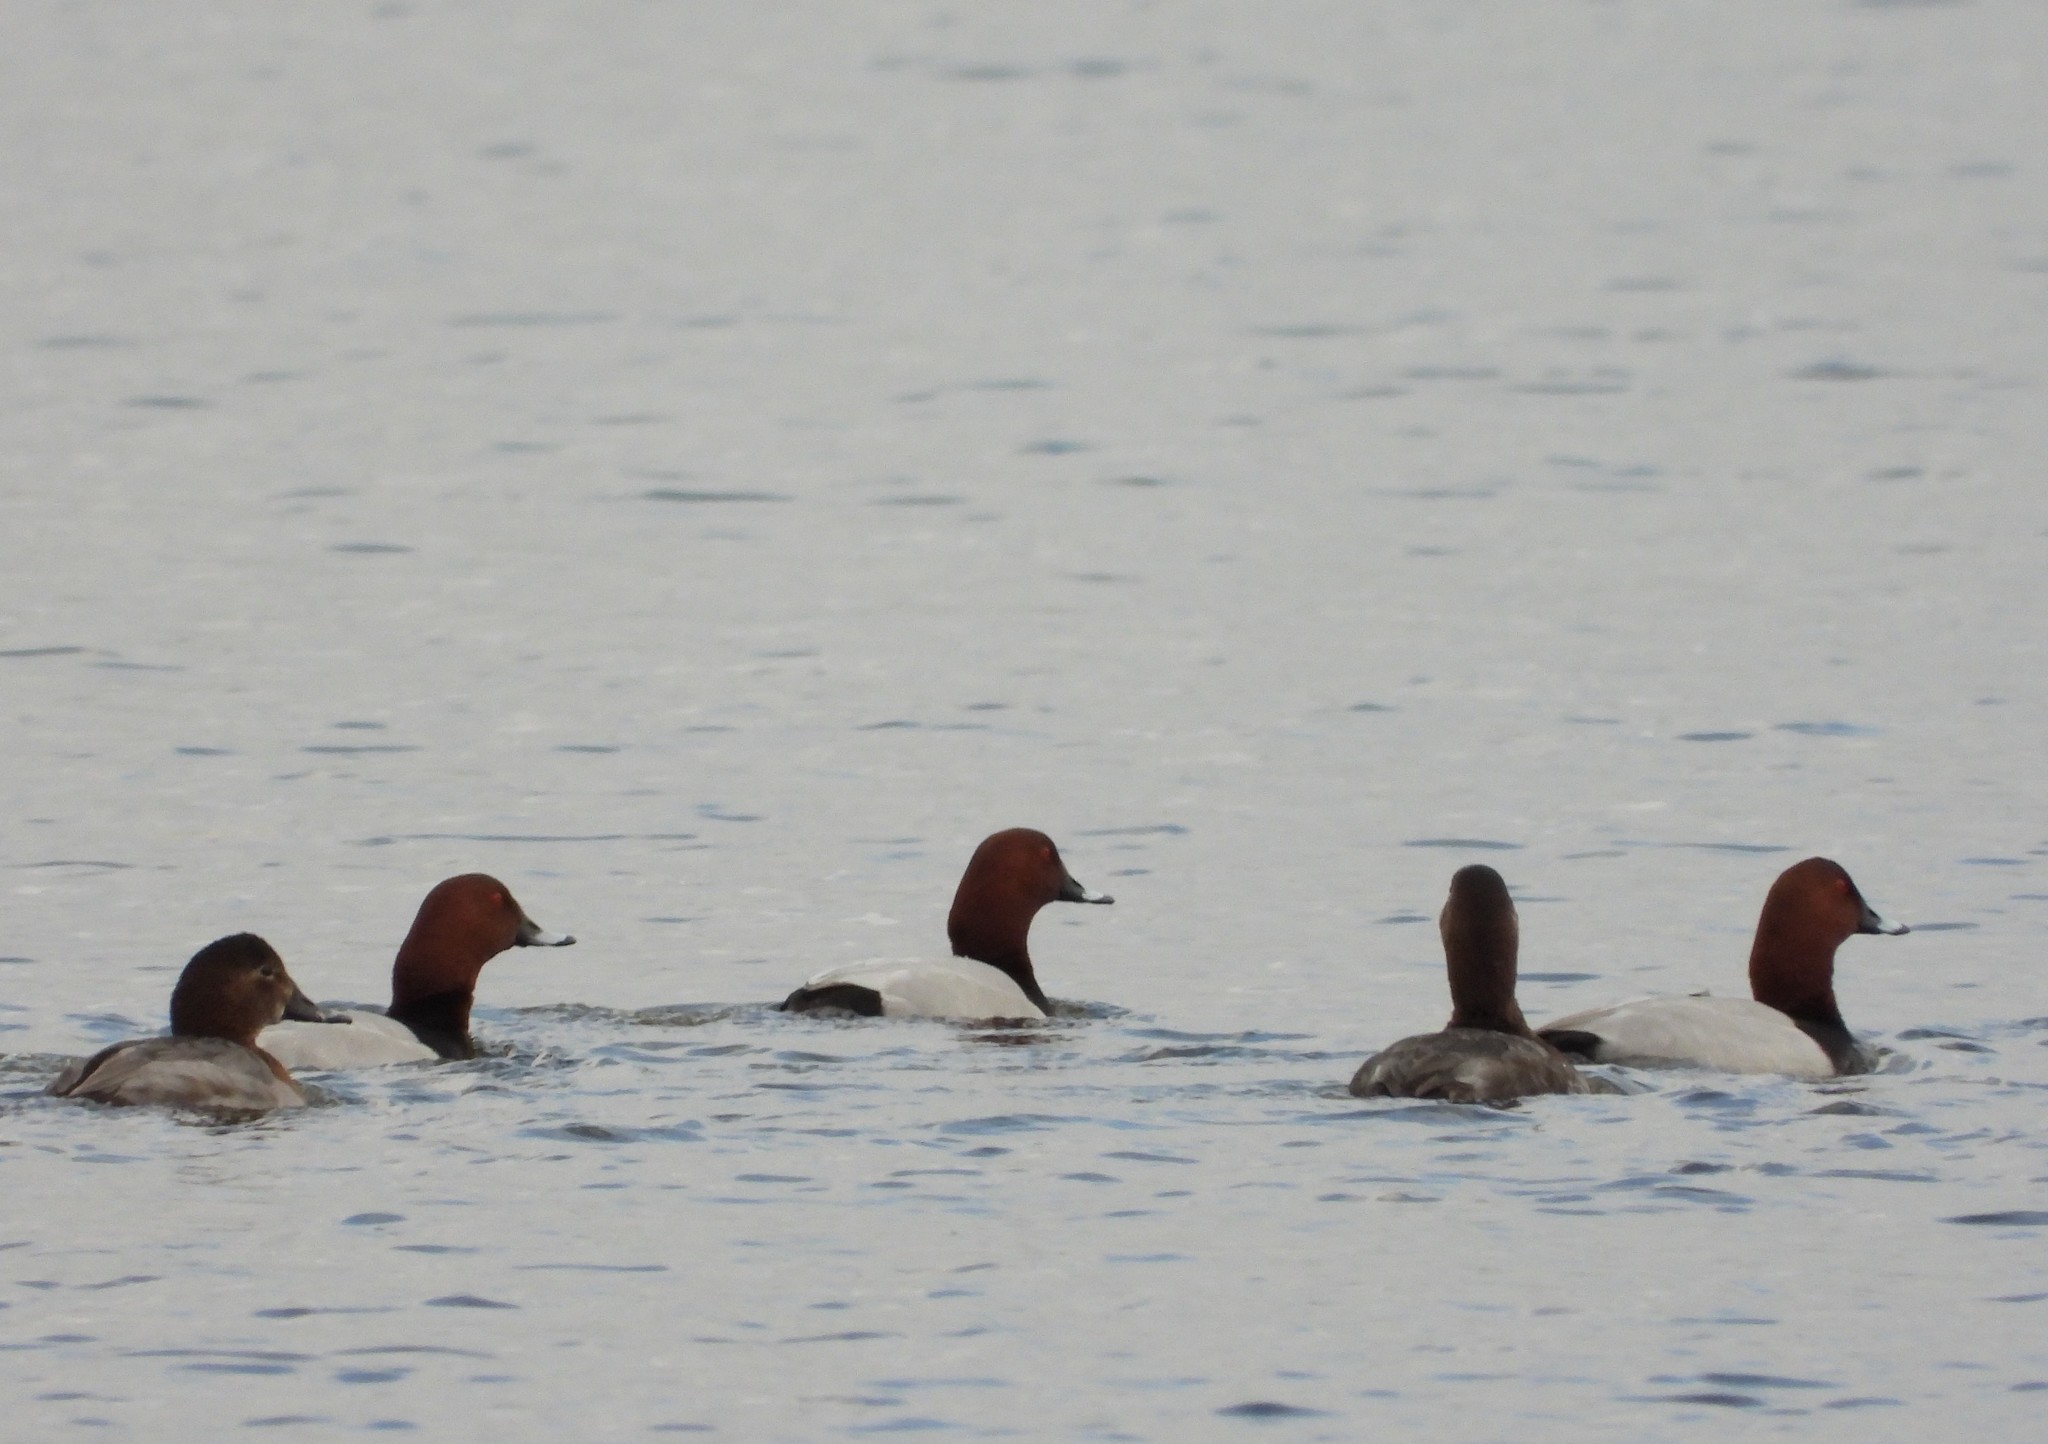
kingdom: Animalia
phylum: Chordata
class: Aves
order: Anseriformes
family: Anatidae
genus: Aythya
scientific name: Aythya ferina
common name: Common pochard
